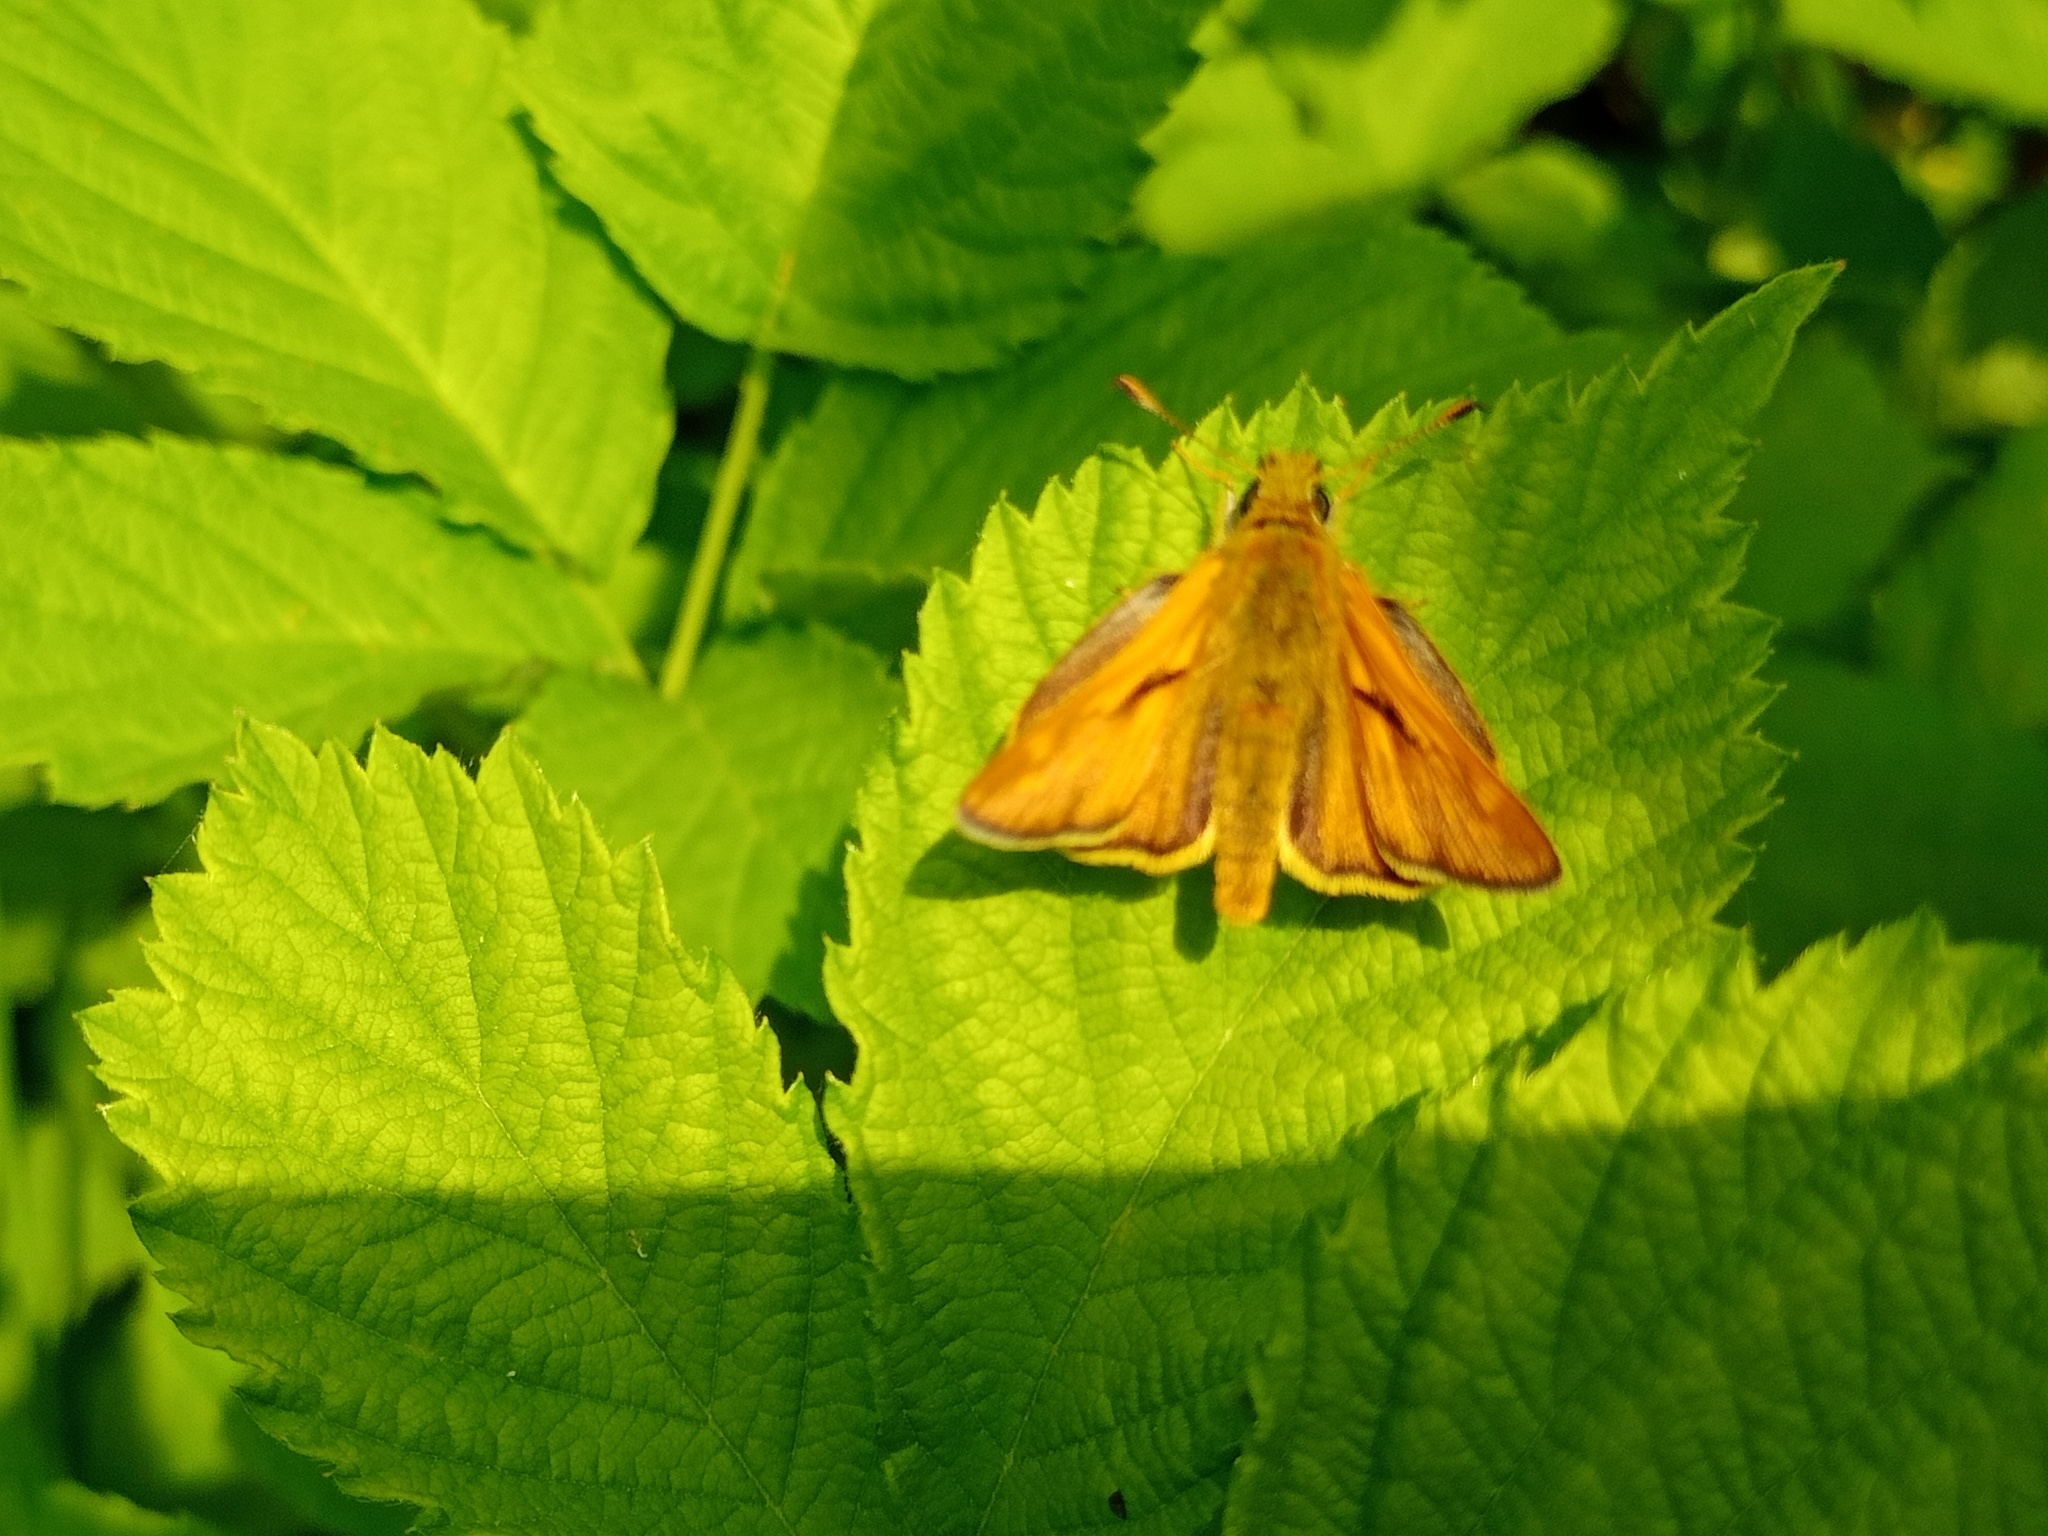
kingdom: Animalia
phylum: Arthropoda
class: Insecta
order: Lepidoptera
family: Hesperiidae
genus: Ochlodes
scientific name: Ochlodes venata
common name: Large skipper
